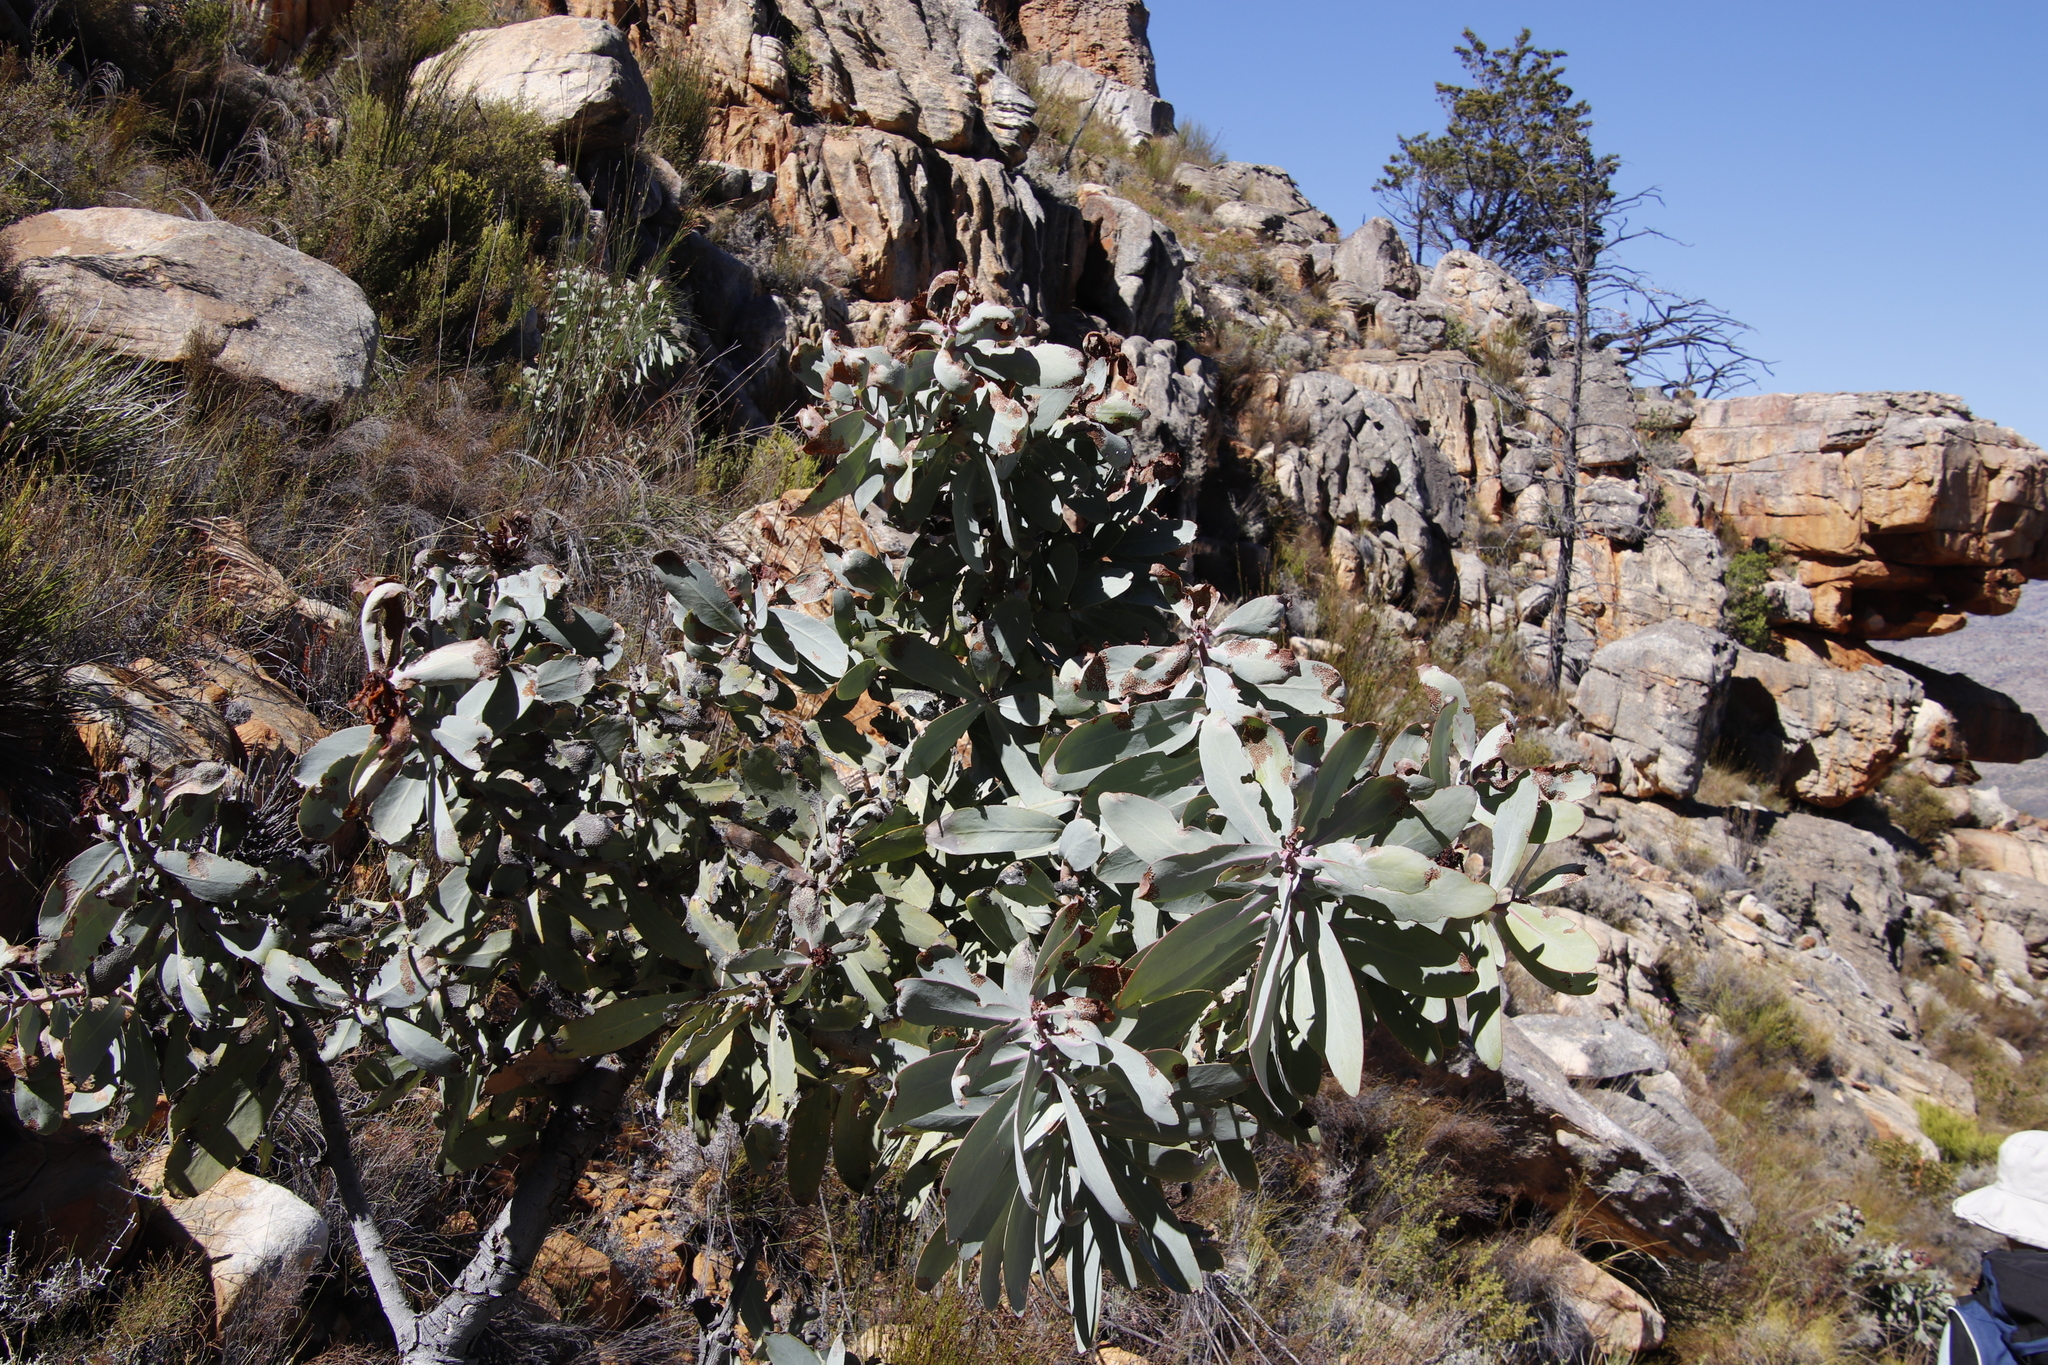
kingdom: Plantae
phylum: Tracheophyta
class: Magnoliopsida
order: Proteales
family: Proteaceae
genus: Protea
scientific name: Protea nitida
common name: Tree protea
